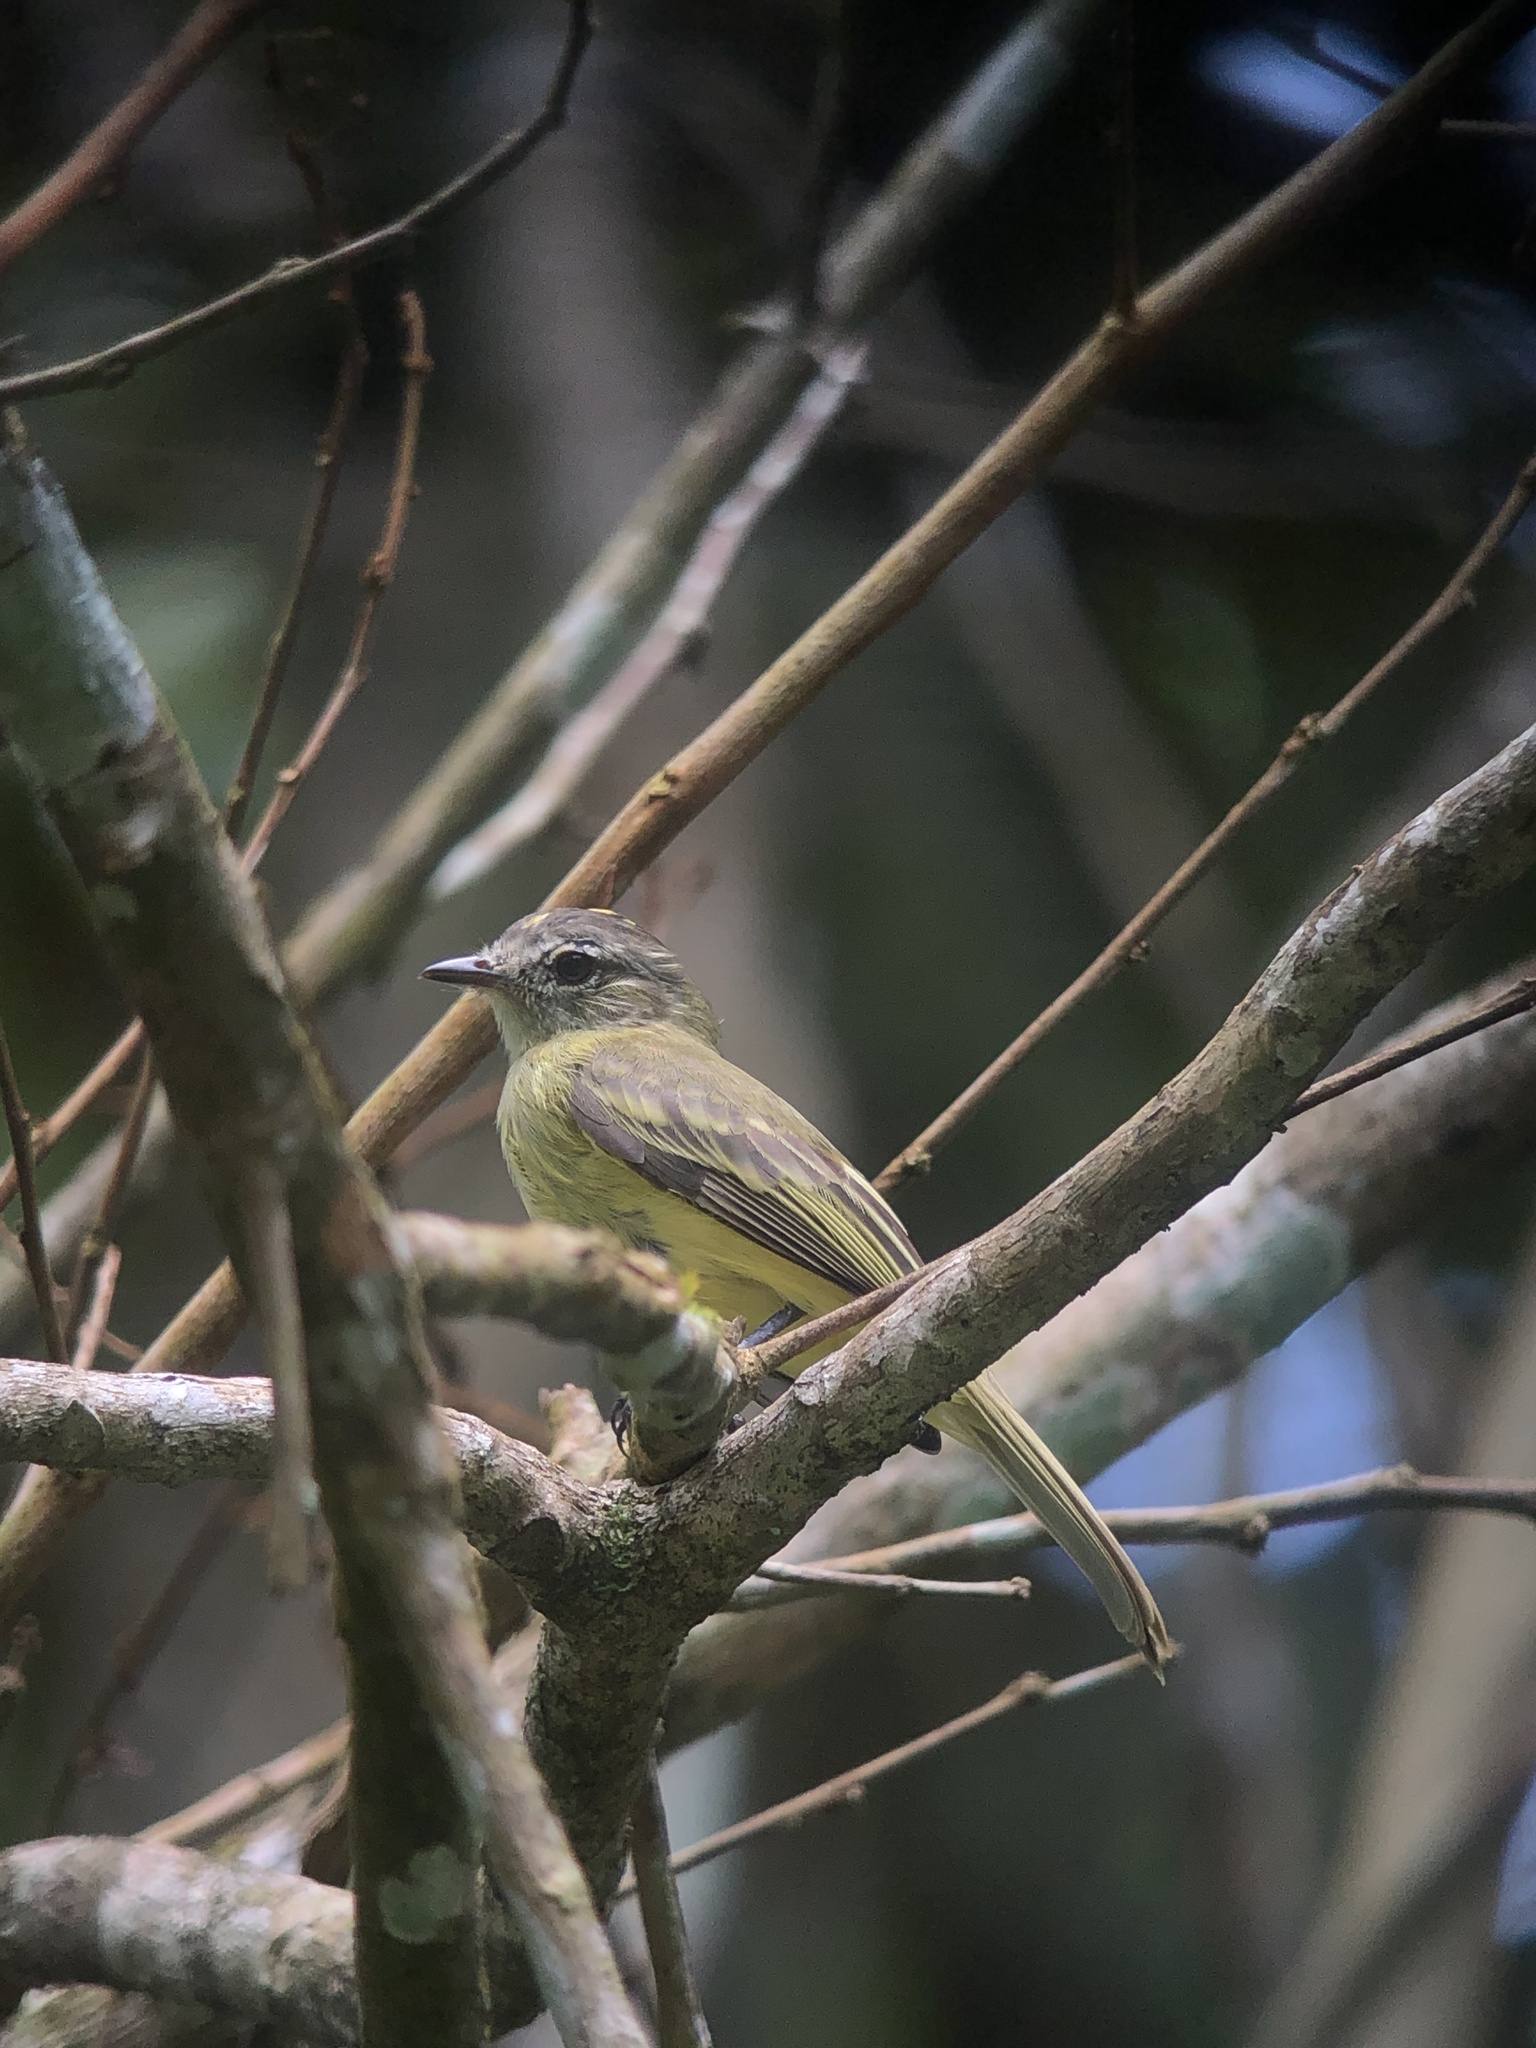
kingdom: Animalia
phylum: Chordata
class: Aves
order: Passeriformes
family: Tyrannidae
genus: Myiopagis
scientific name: Myiopagis viridicata
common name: Greenish elaenia
